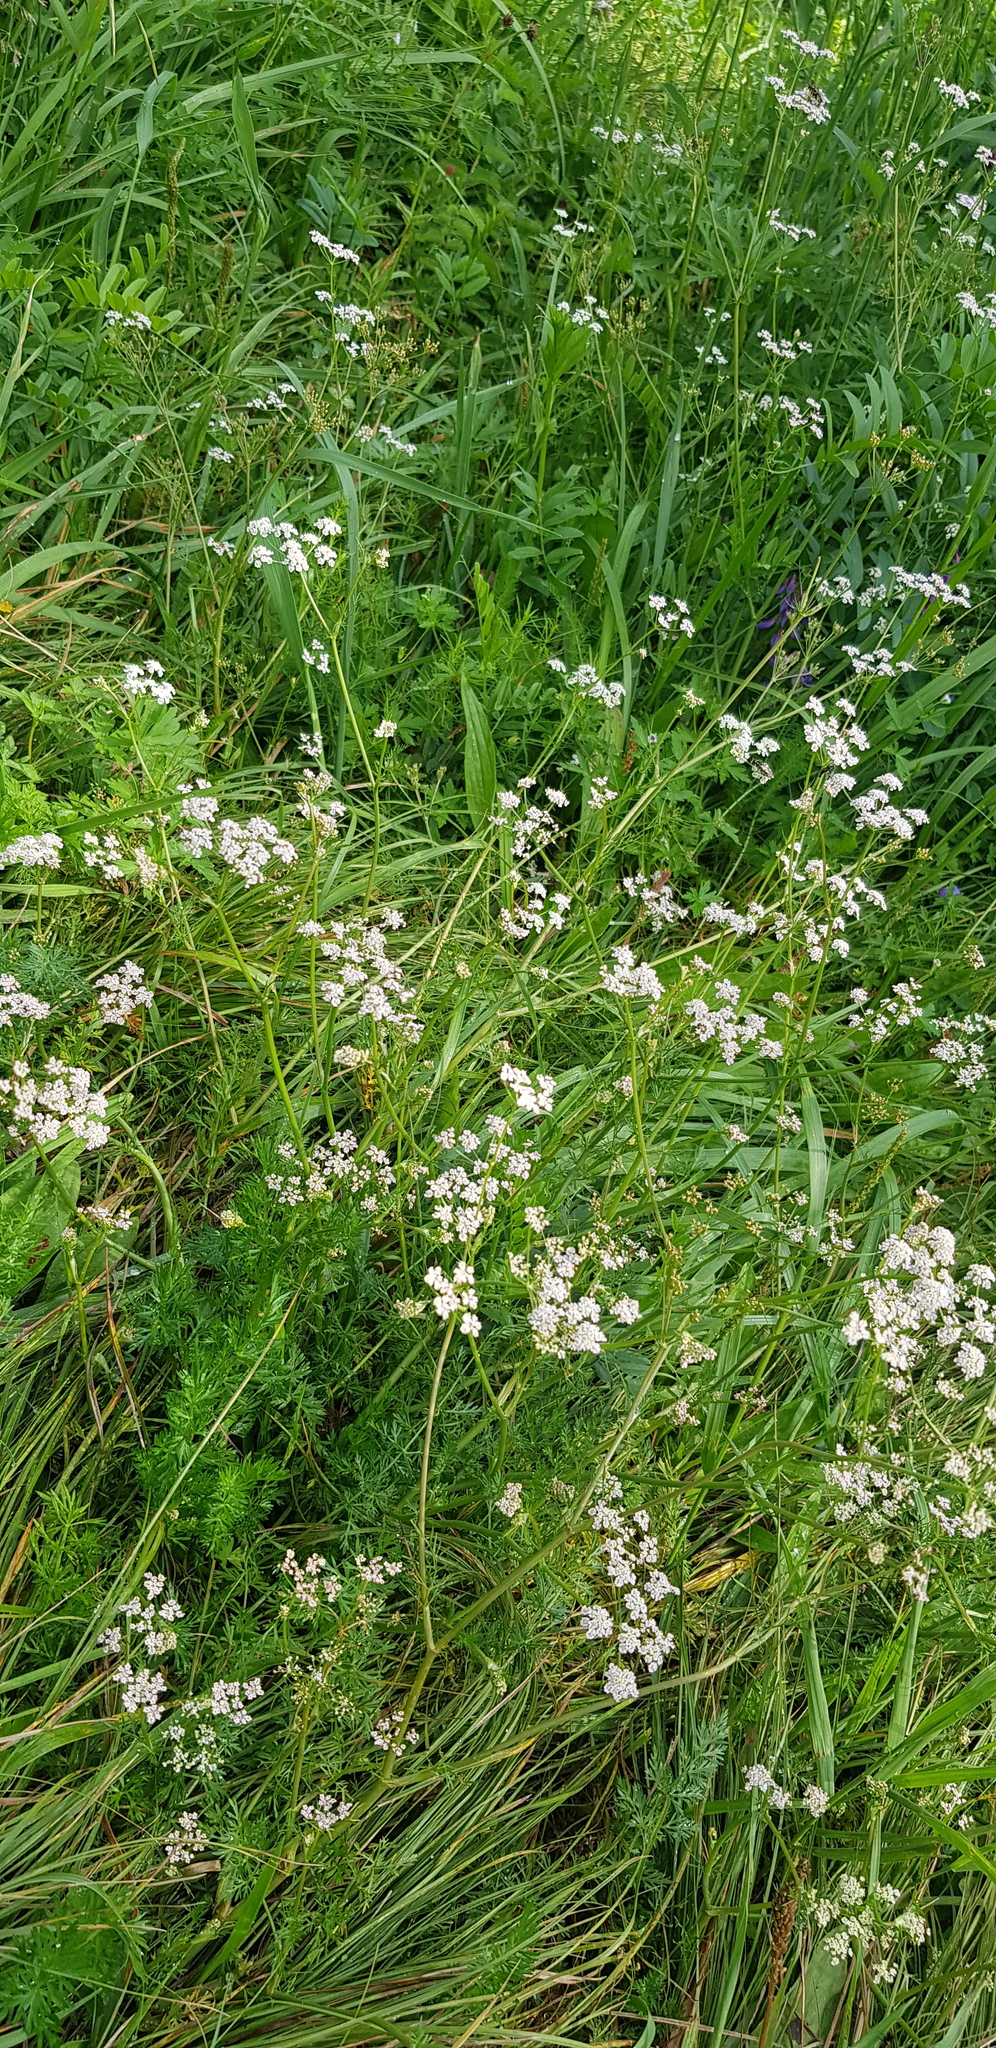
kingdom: Plantae
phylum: Tracheophyta
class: Magnoliopsida
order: Apiales
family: Apiaceae
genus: Carum
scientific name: Carum carvi
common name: Caraway
